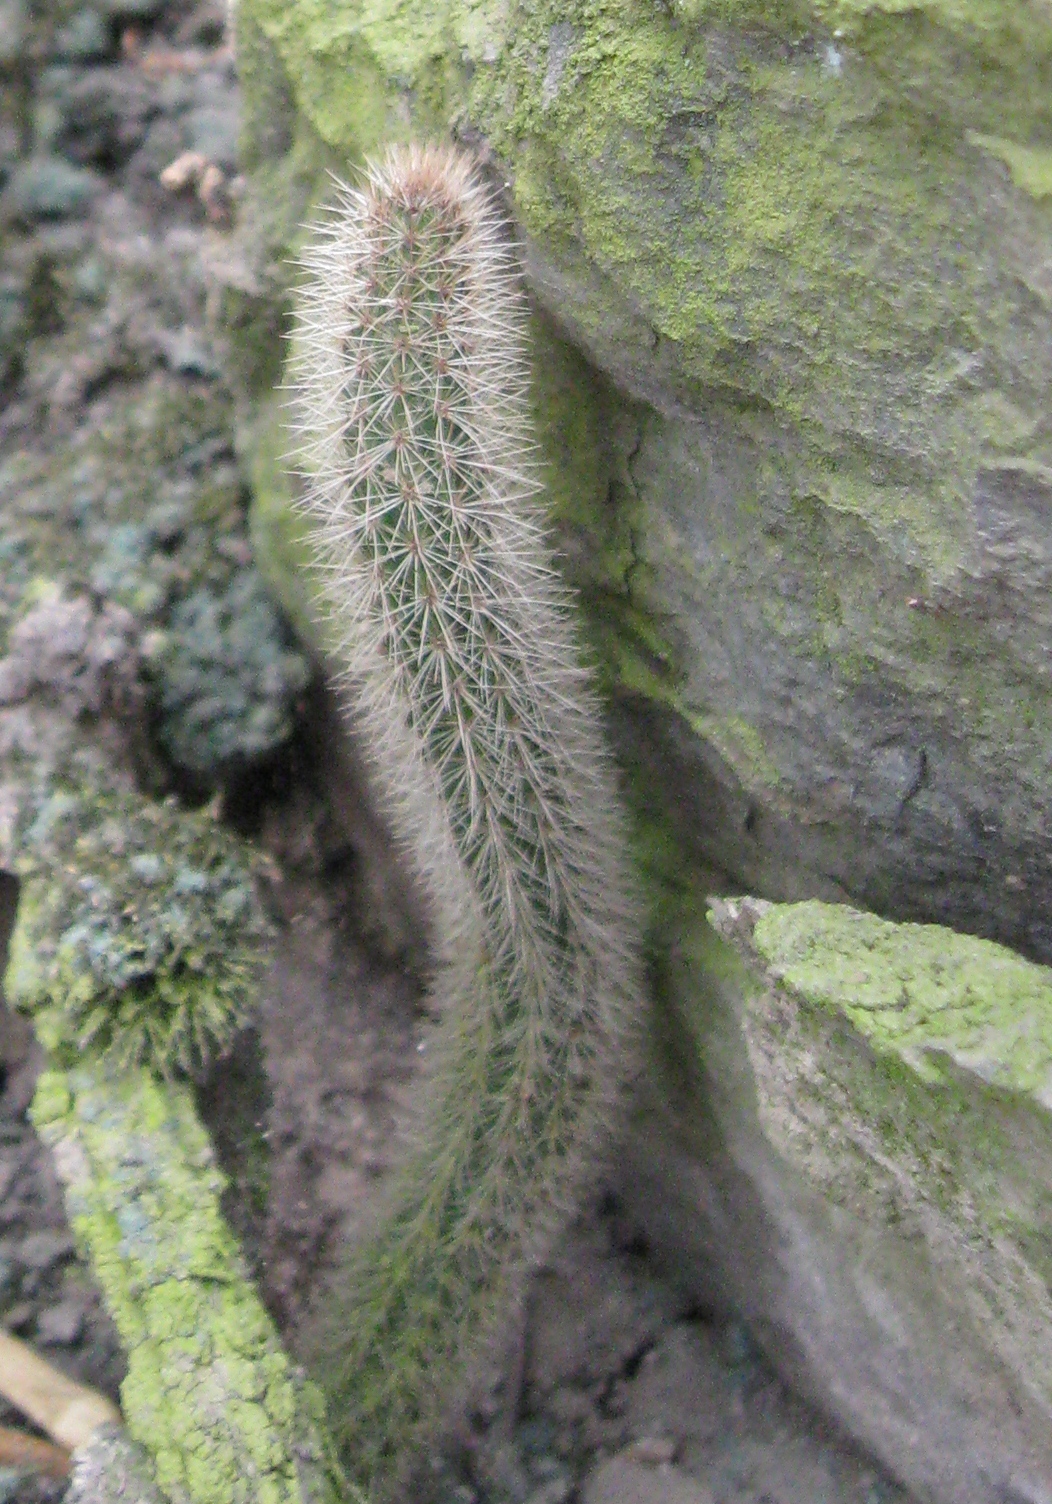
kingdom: Plantae
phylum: Tracheophyta
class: Magnoliopsida
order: Caryophyllales
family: Cactaceae
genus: Corryocactus
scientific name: Corryocactus apiciflorus
